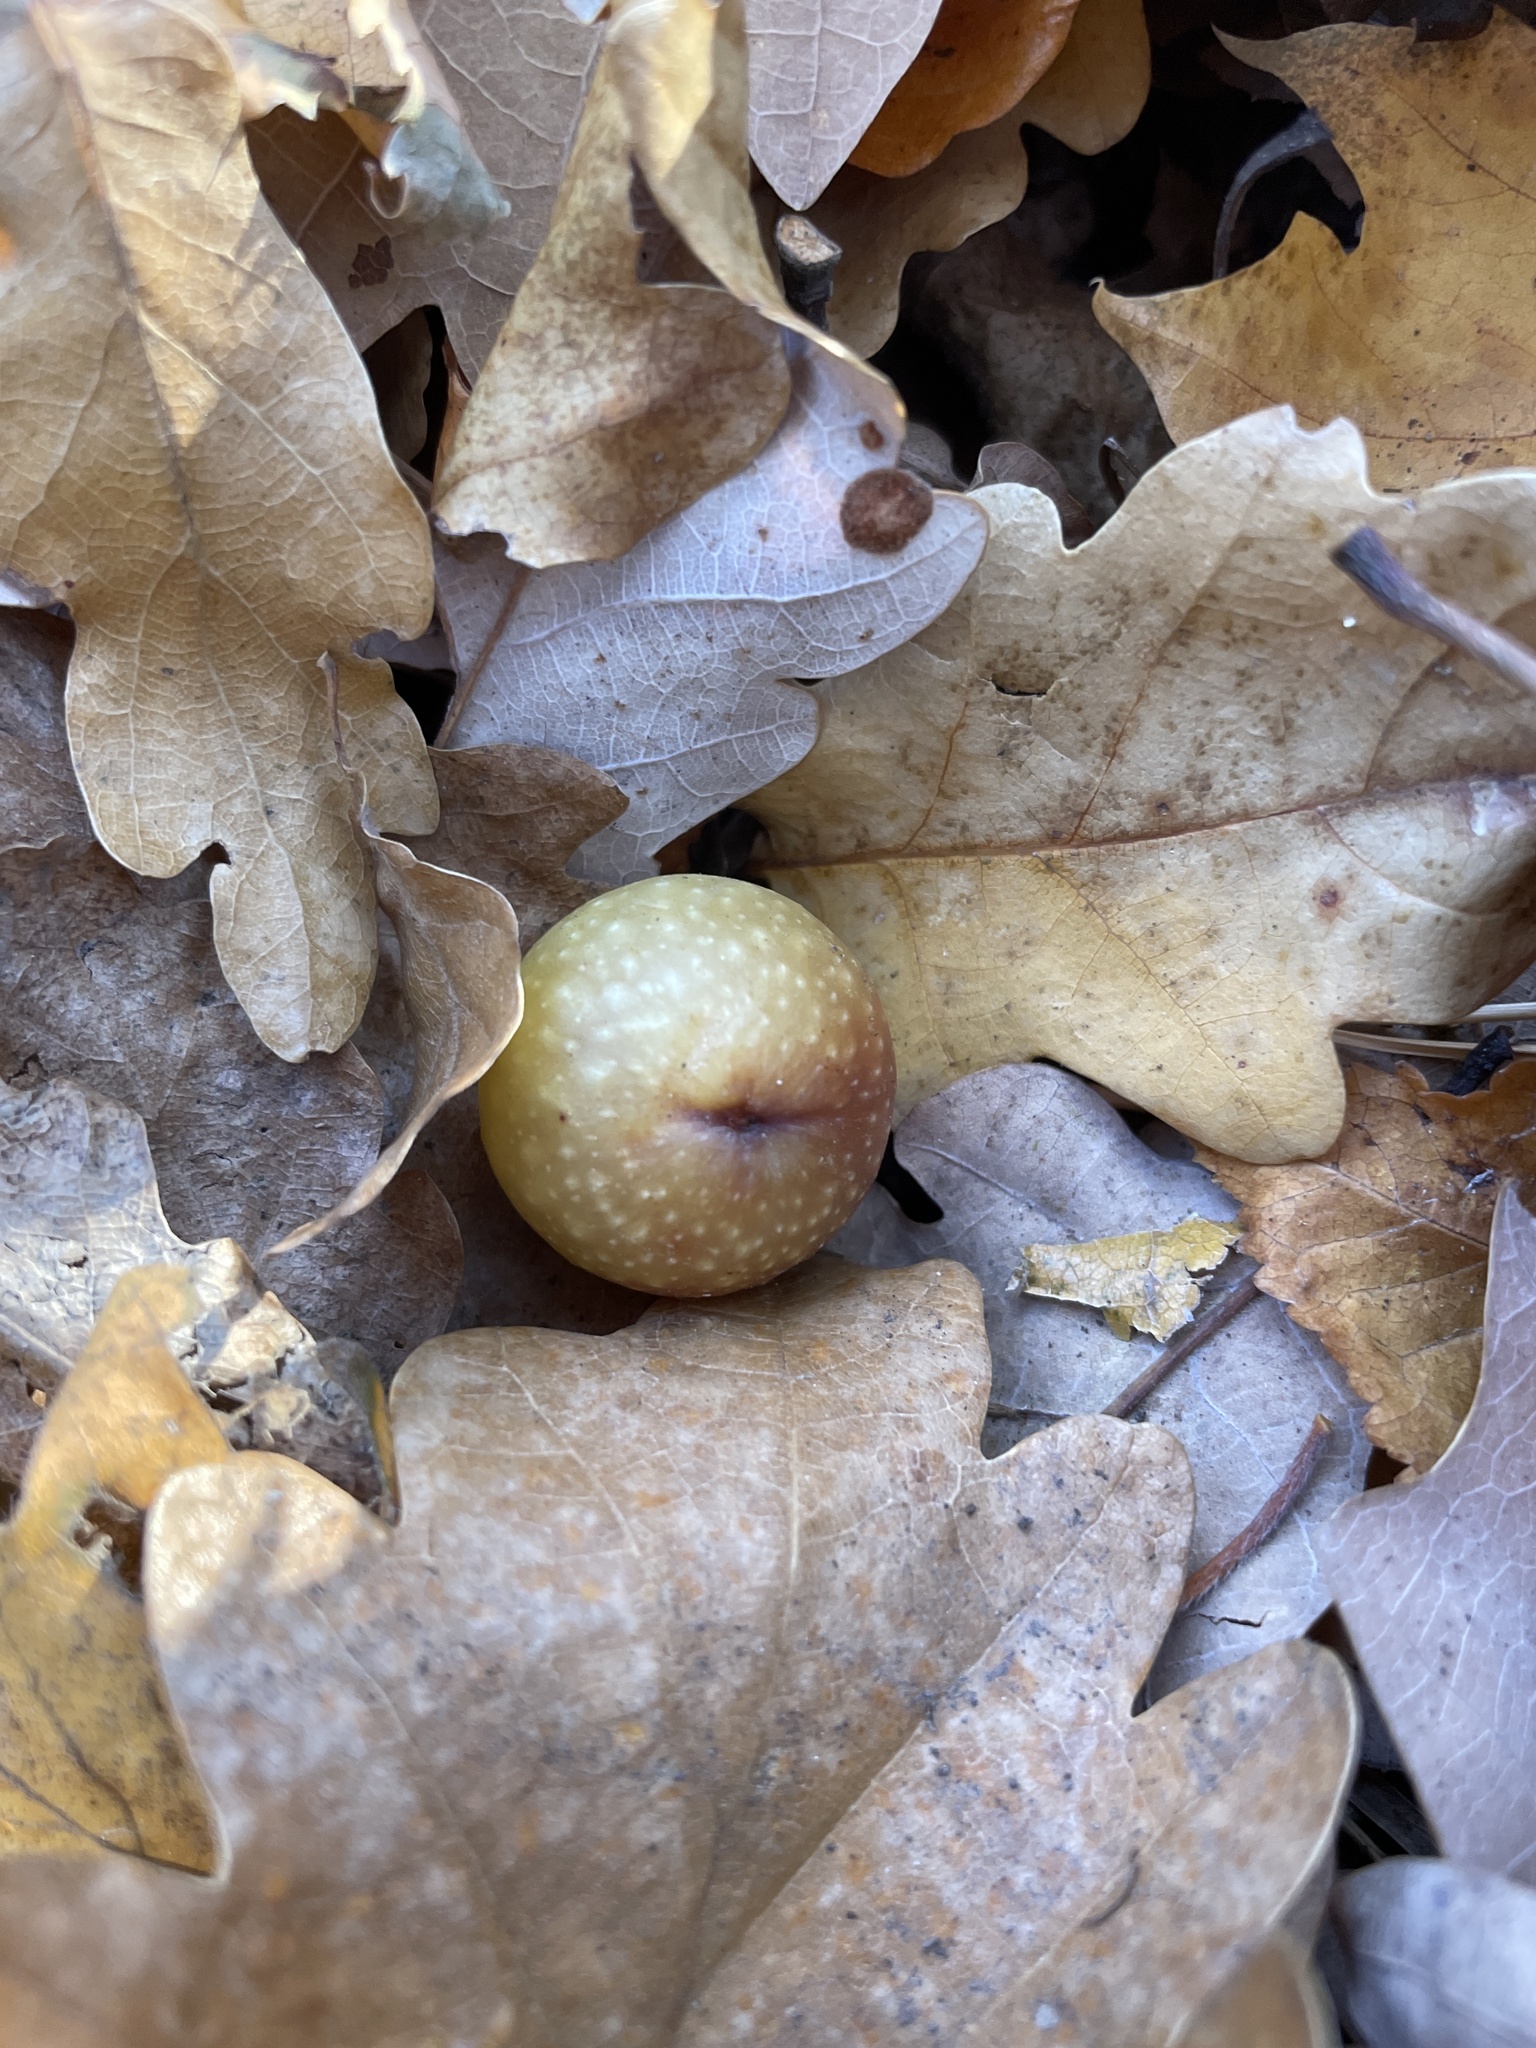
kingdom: Animalia
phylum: Arthropoda
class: Insecta
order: Hymenoptera
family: Cynipidae
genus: Cynips
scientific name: Cynips quercusfolii
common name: Cherry gall
